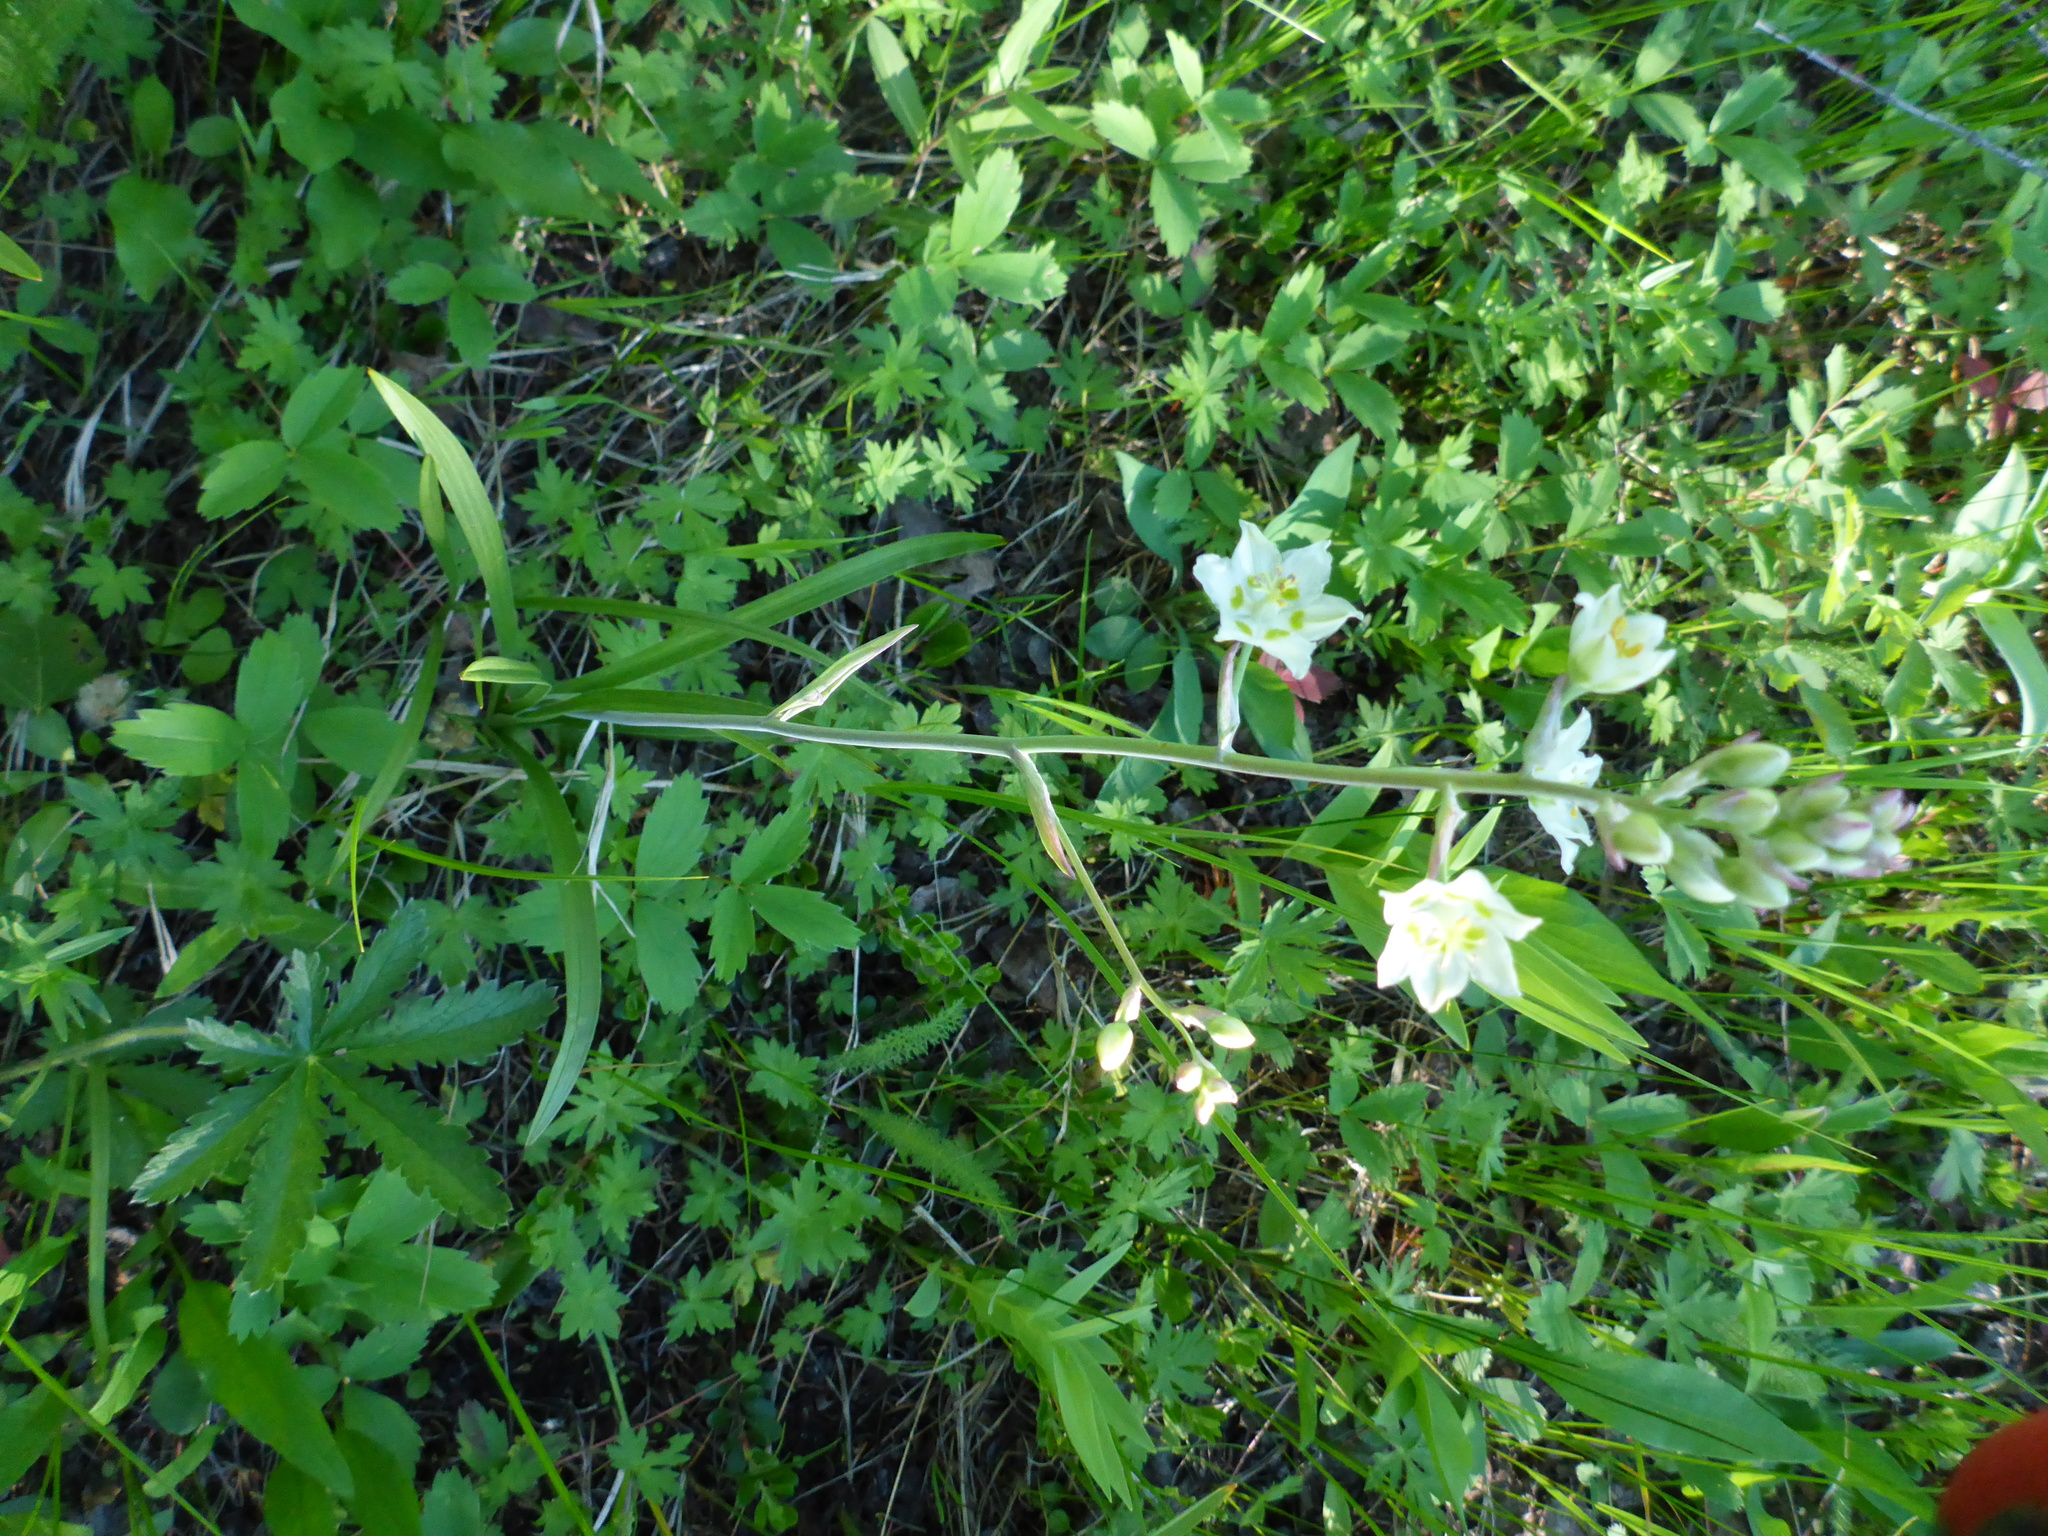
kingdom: Plantae
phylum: Tracheophyta
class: Liliopsida
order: Liliales
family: Melanthiaceae
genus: Anticlea
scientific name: Anticlea elegans
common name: Mountain death camas
